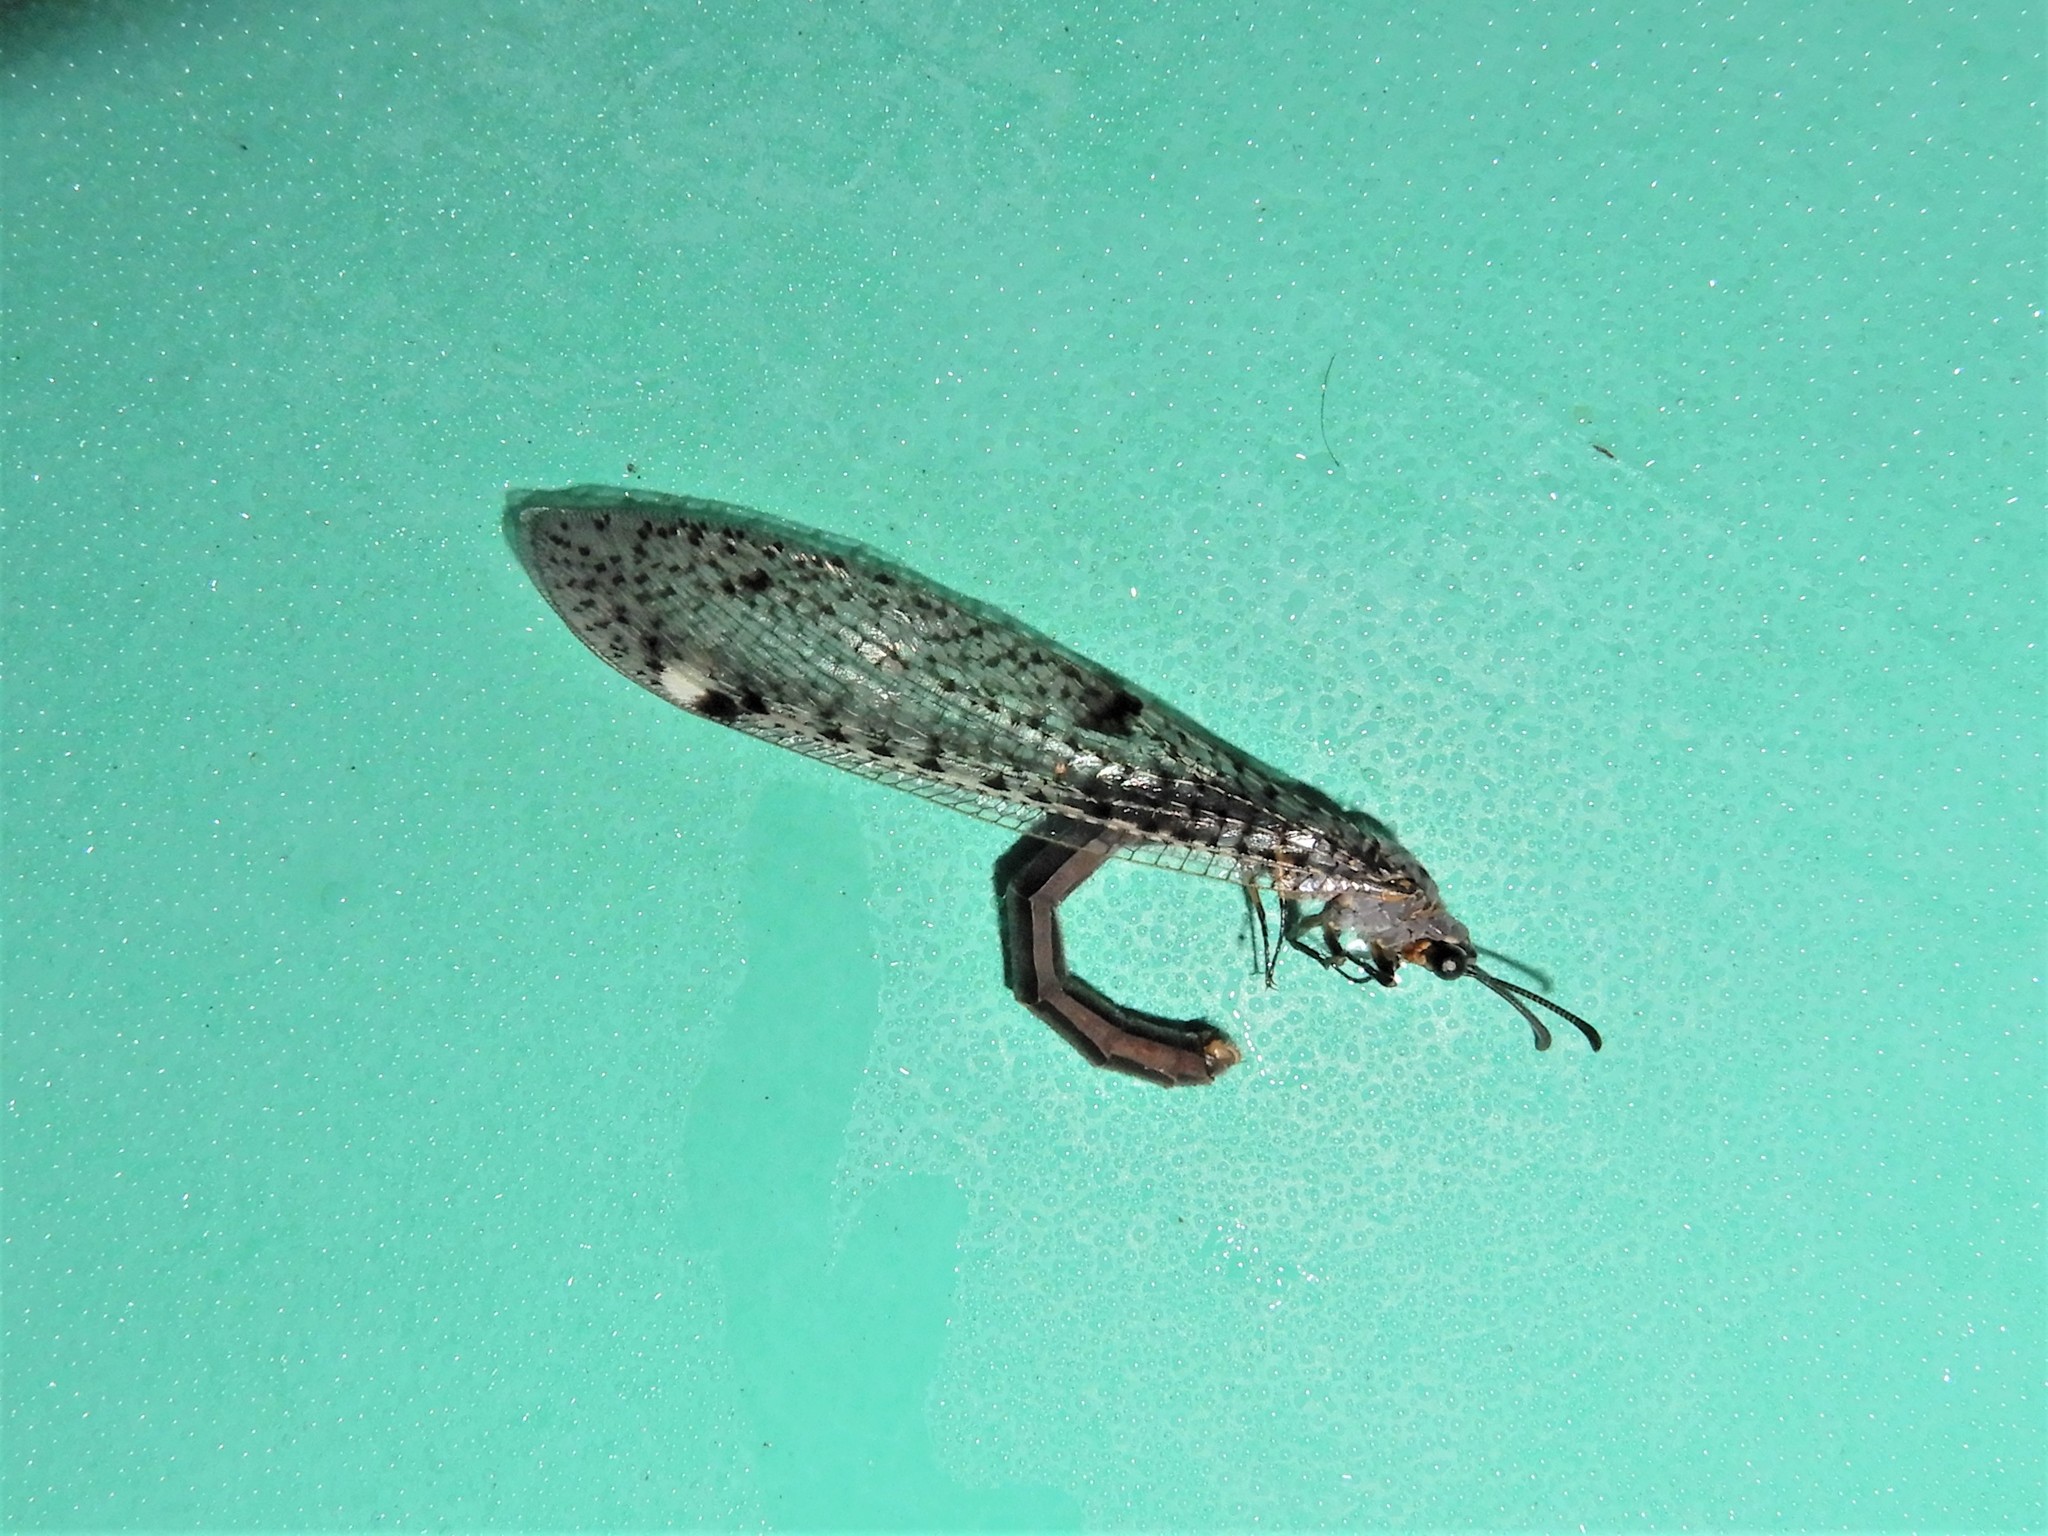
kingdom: Animalia
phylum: Arthropoda
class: Insecta
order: Neuroptera
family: Myrmeleontidae
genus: Weeleus
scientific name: Weeleus acutus
